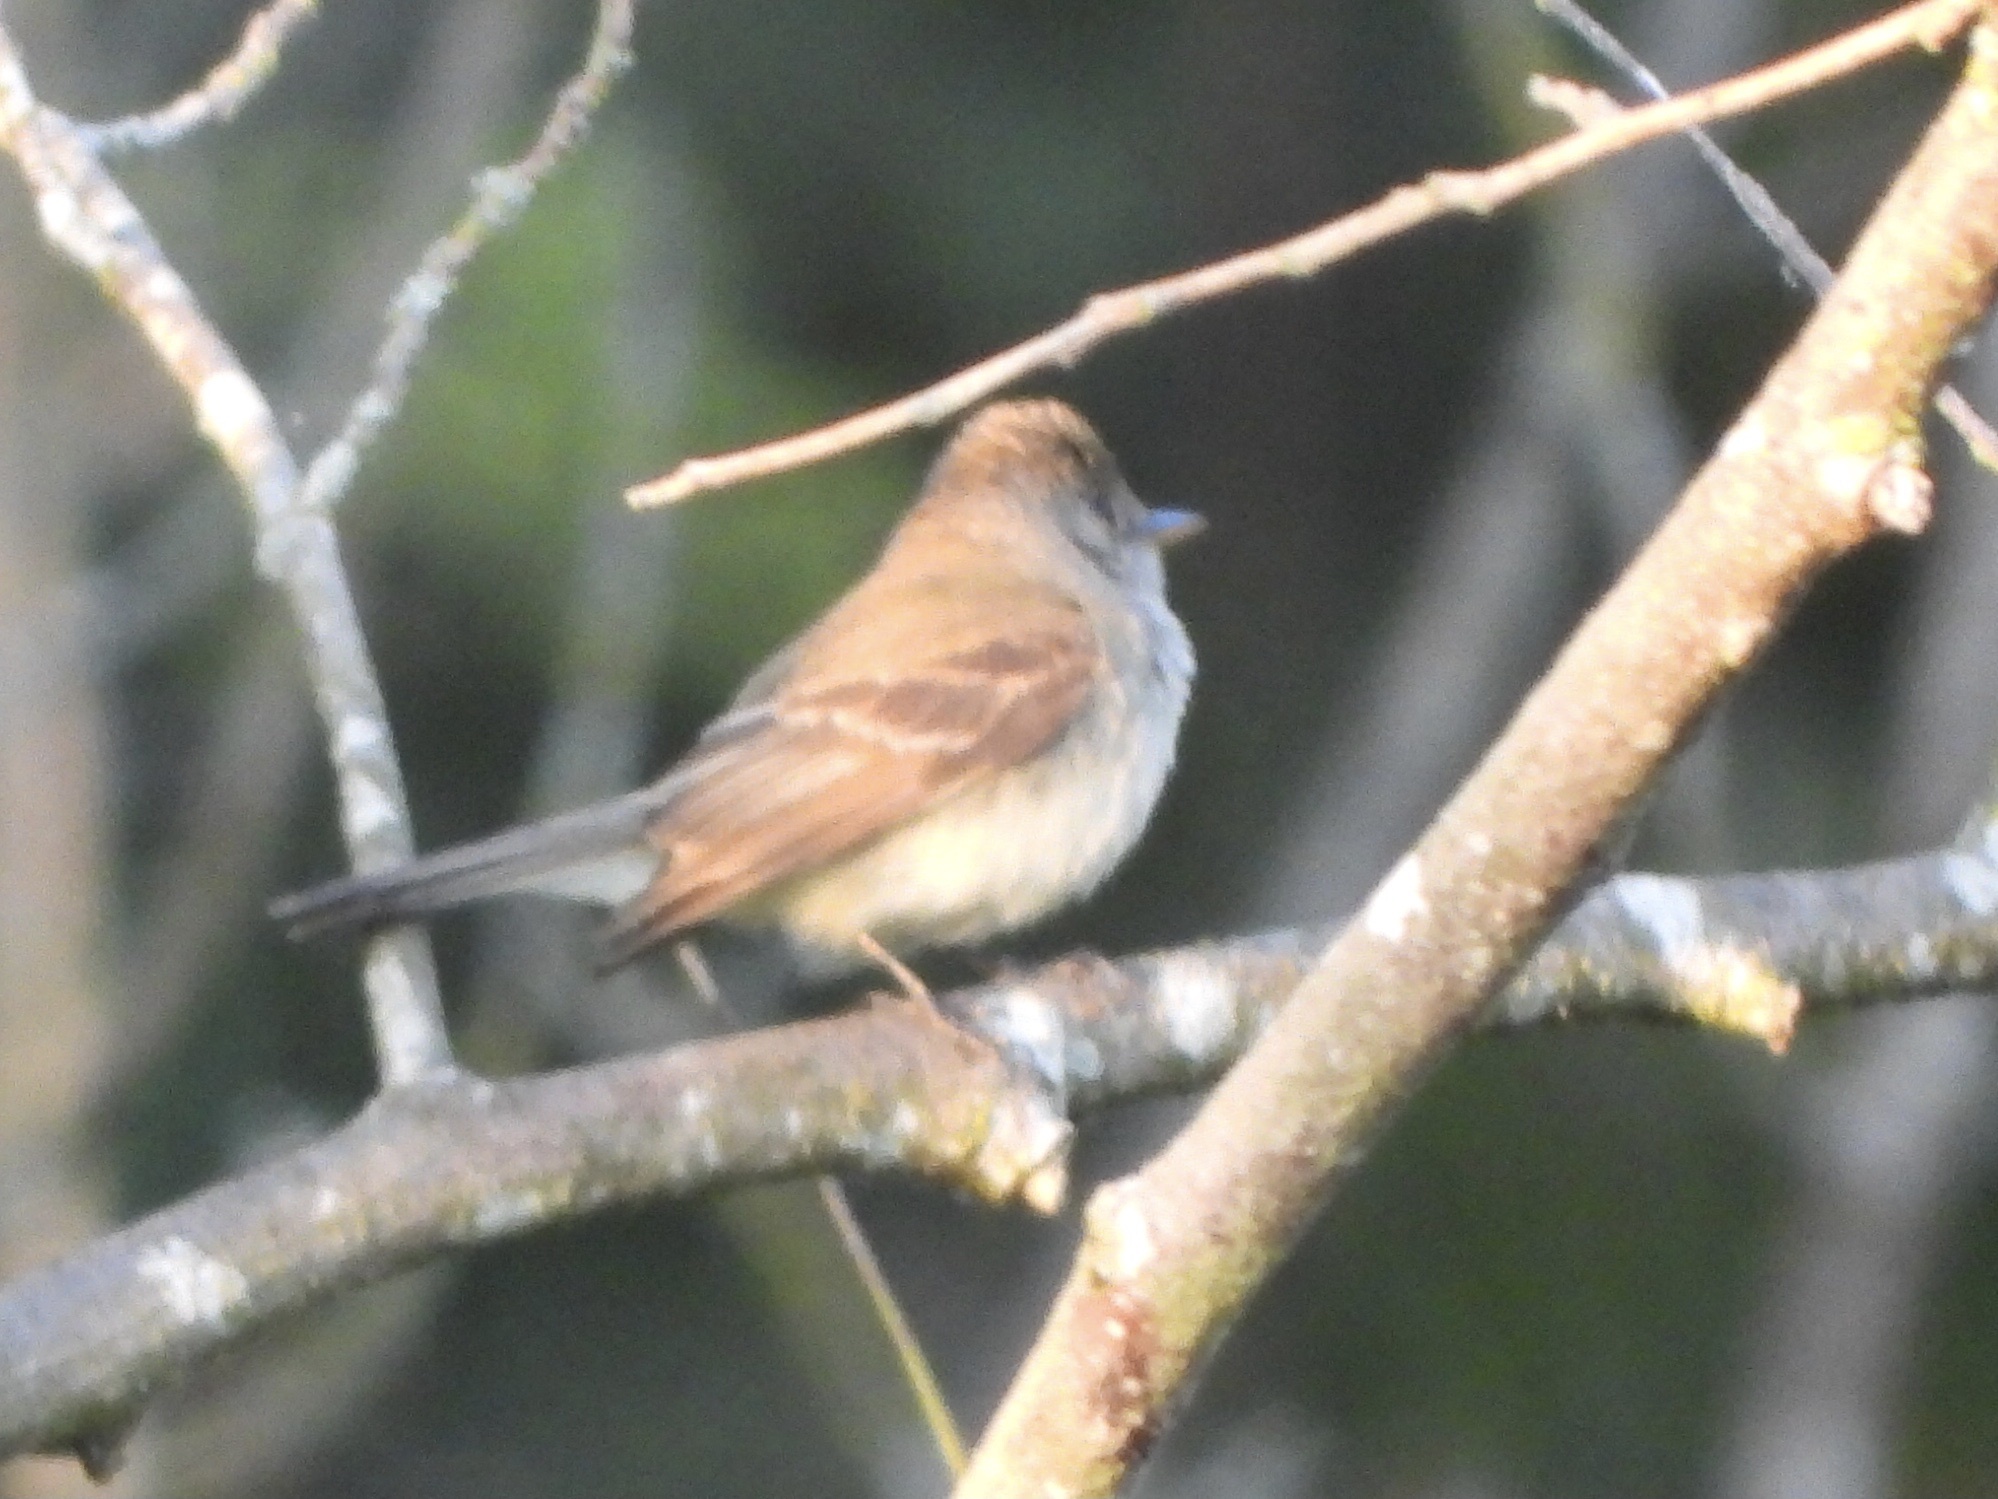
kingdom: Animalia
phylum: Chordata
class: Aves
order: Passeriformes
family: Tyrannidae
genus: Empidonax
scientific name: Empidonax traillii
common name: Willow flycatcher
